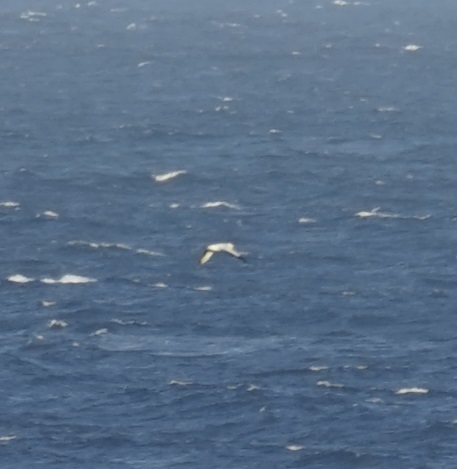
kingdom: Animalia
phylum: Chordata
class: Aves
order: Suliformes
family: Sulidae
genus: Morus
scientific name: Morus serrator
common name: Australasian gannet
